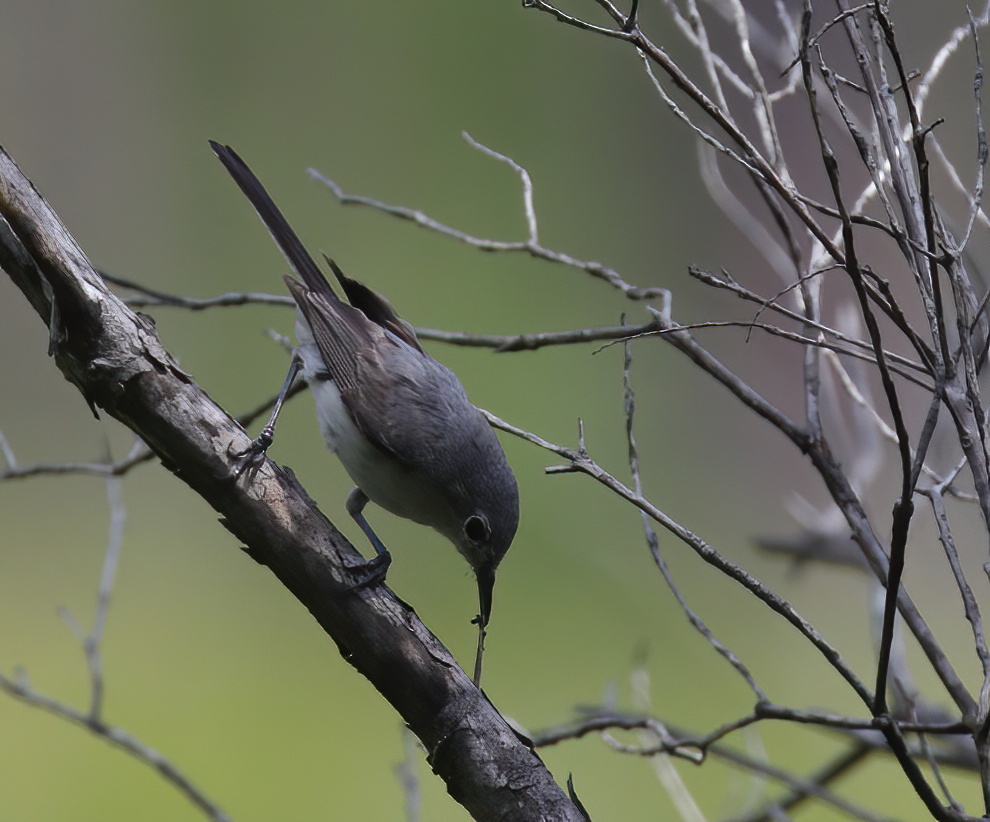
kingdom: Animalia
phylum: Chordata
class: Aves
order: Passeriformes
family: Polioptilidae
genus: Polioptila
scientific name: Polioptila caerulea
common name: Blue-gray gnatcatcher
